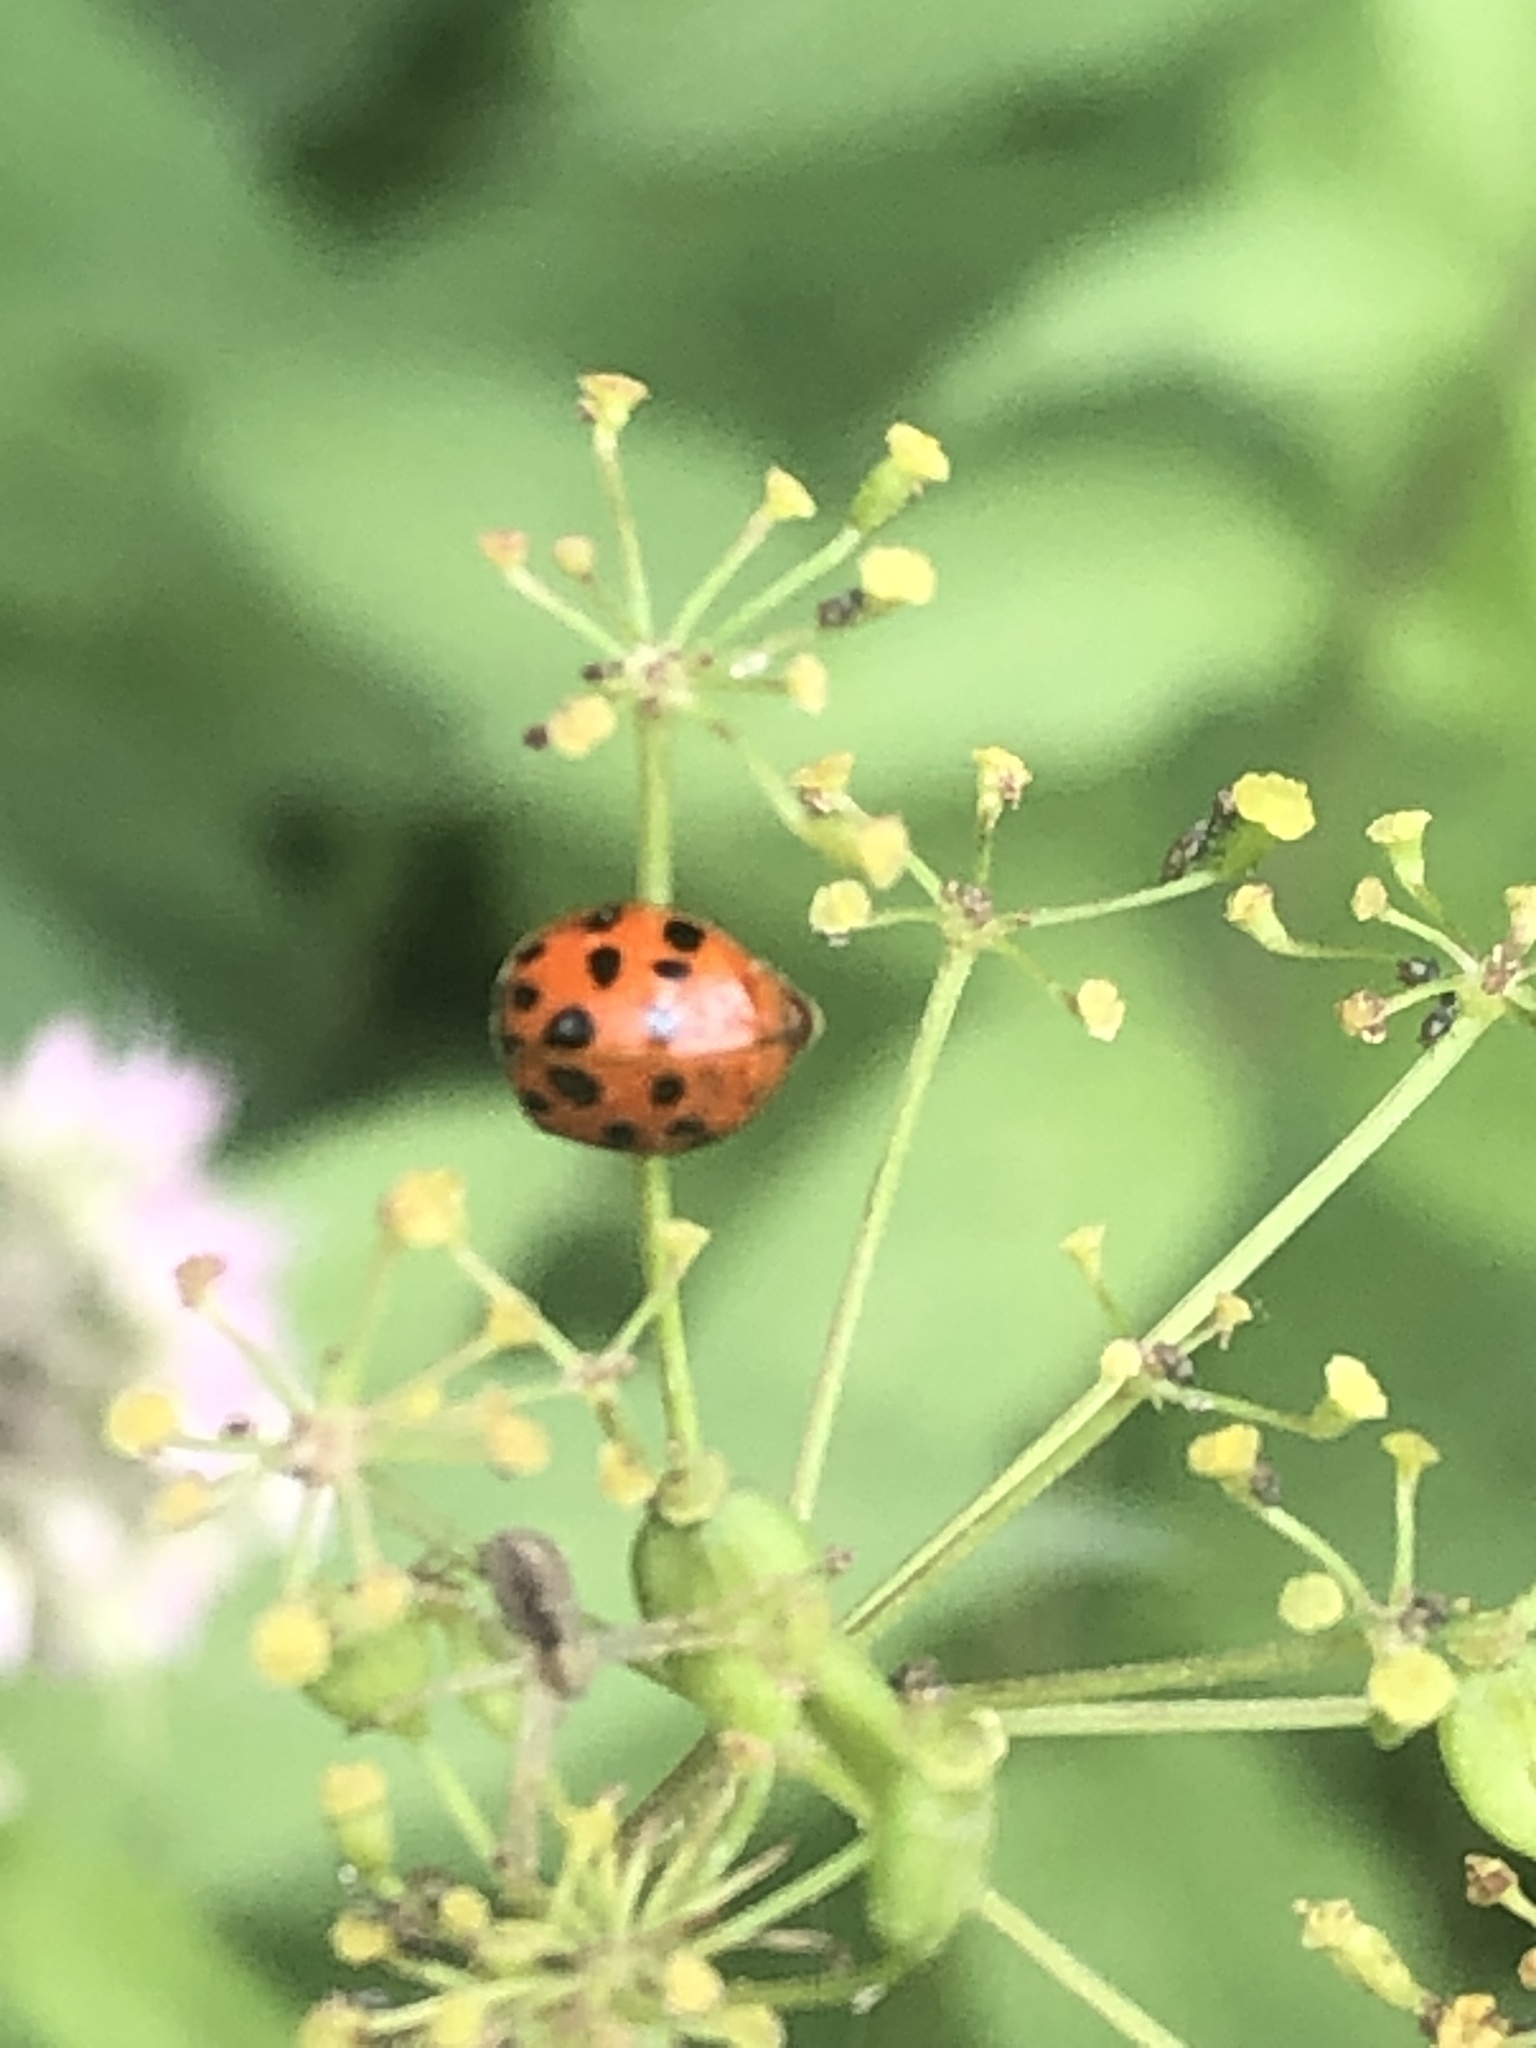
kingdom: Animalia
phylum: Arthropoda
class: Insecta
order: Coleoptera
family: Coccinellidae
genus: Harmonia
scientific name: Harmonia axyridis
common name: Harlequin ladybird
